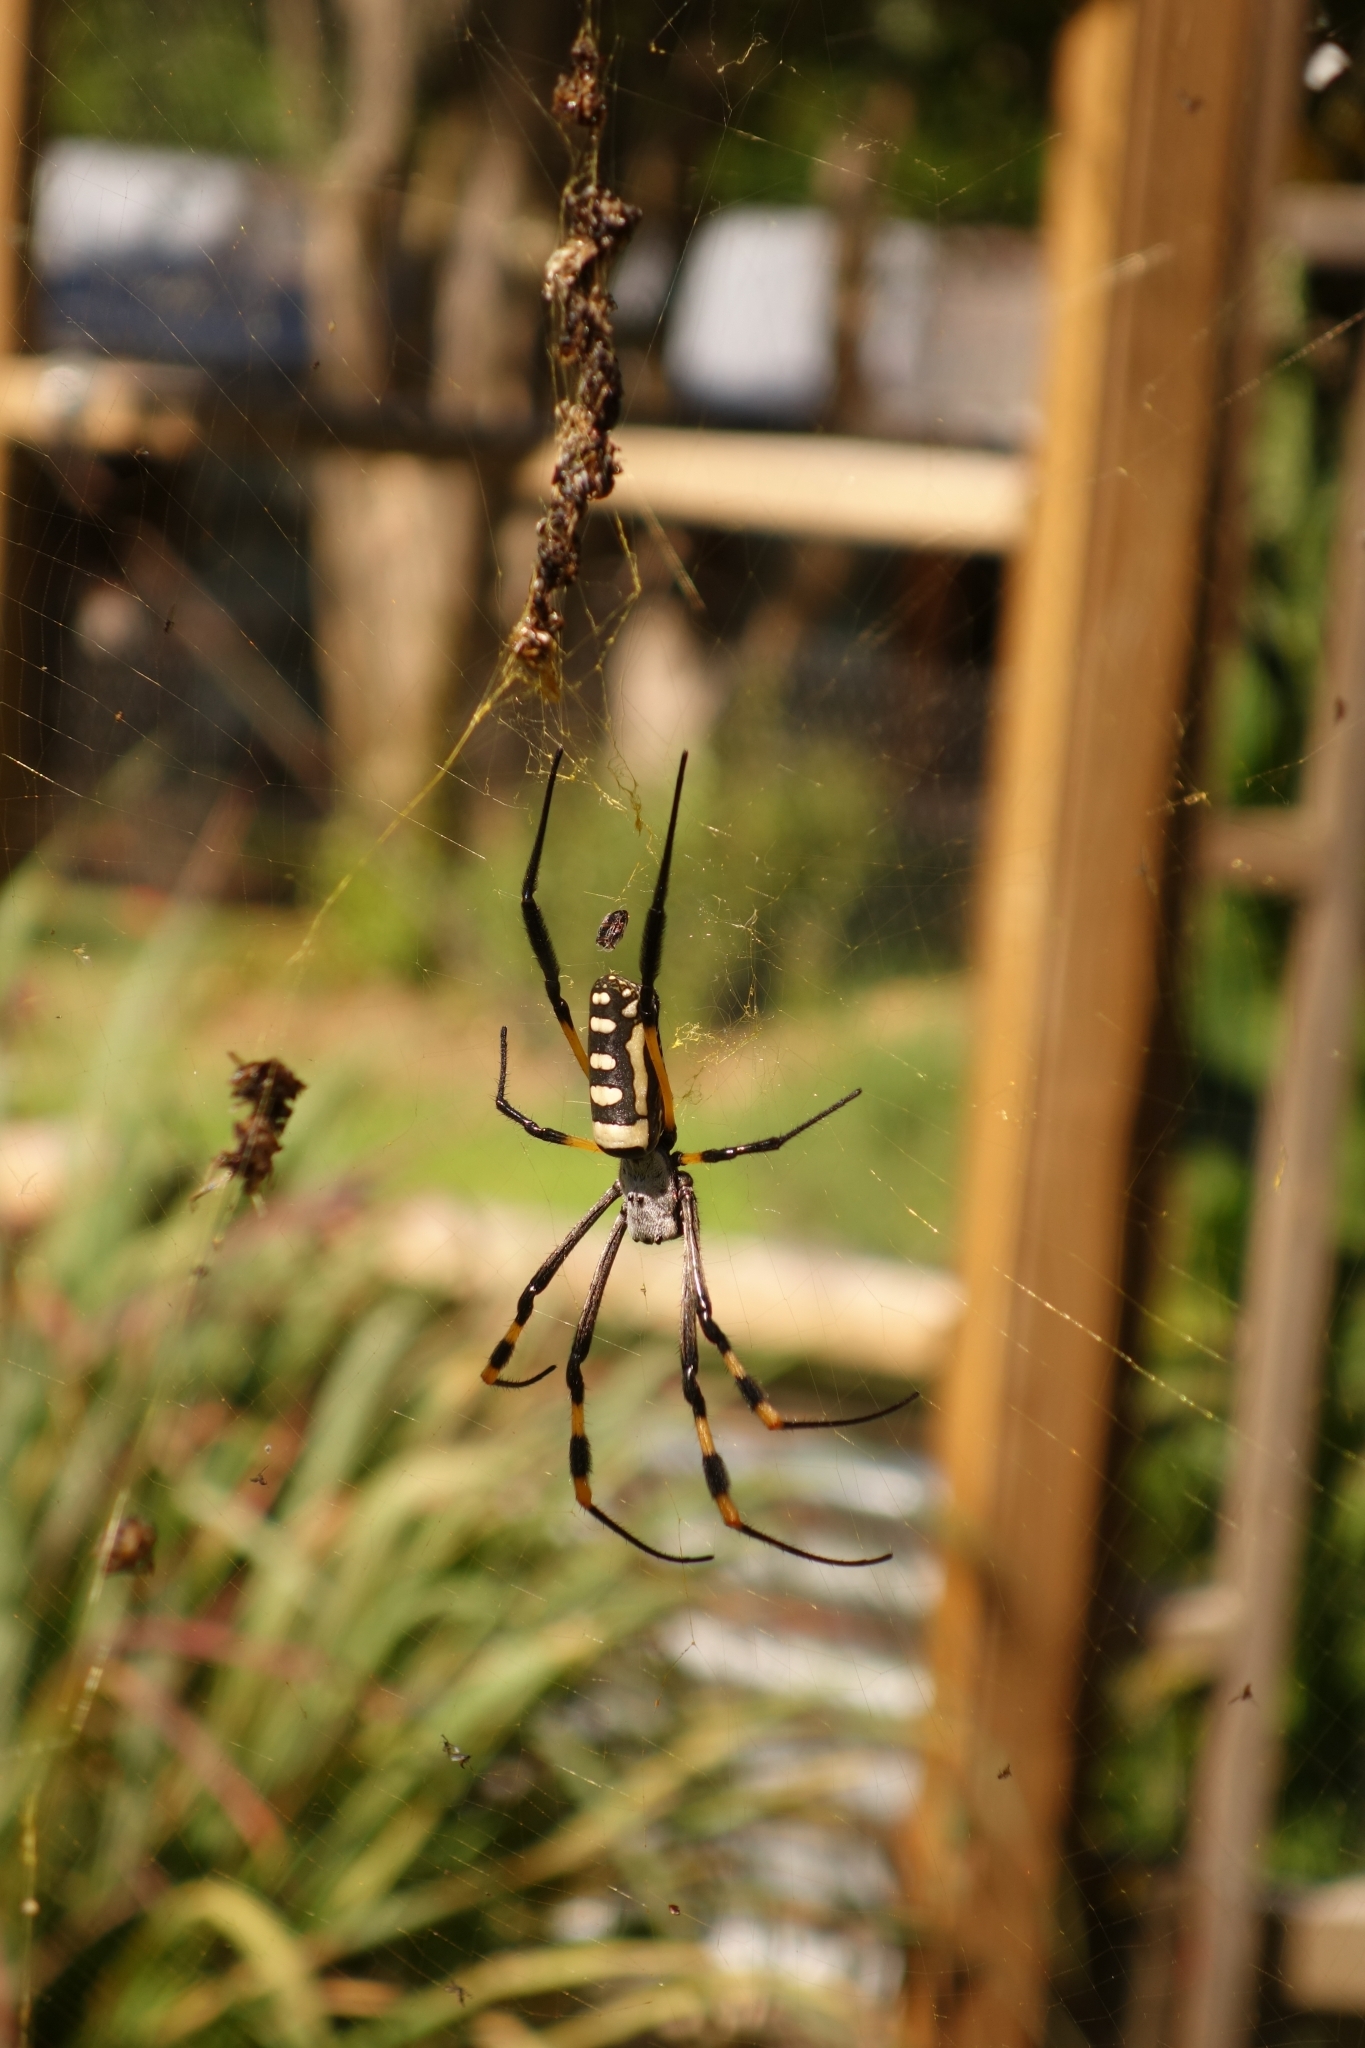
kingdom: Animalia
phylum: Arthropoda
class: Arachnida
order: Araneae
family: Araneidae
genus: Trichonephila
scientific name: Trichonephila senegalensis
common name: Banded golden orb weaver
